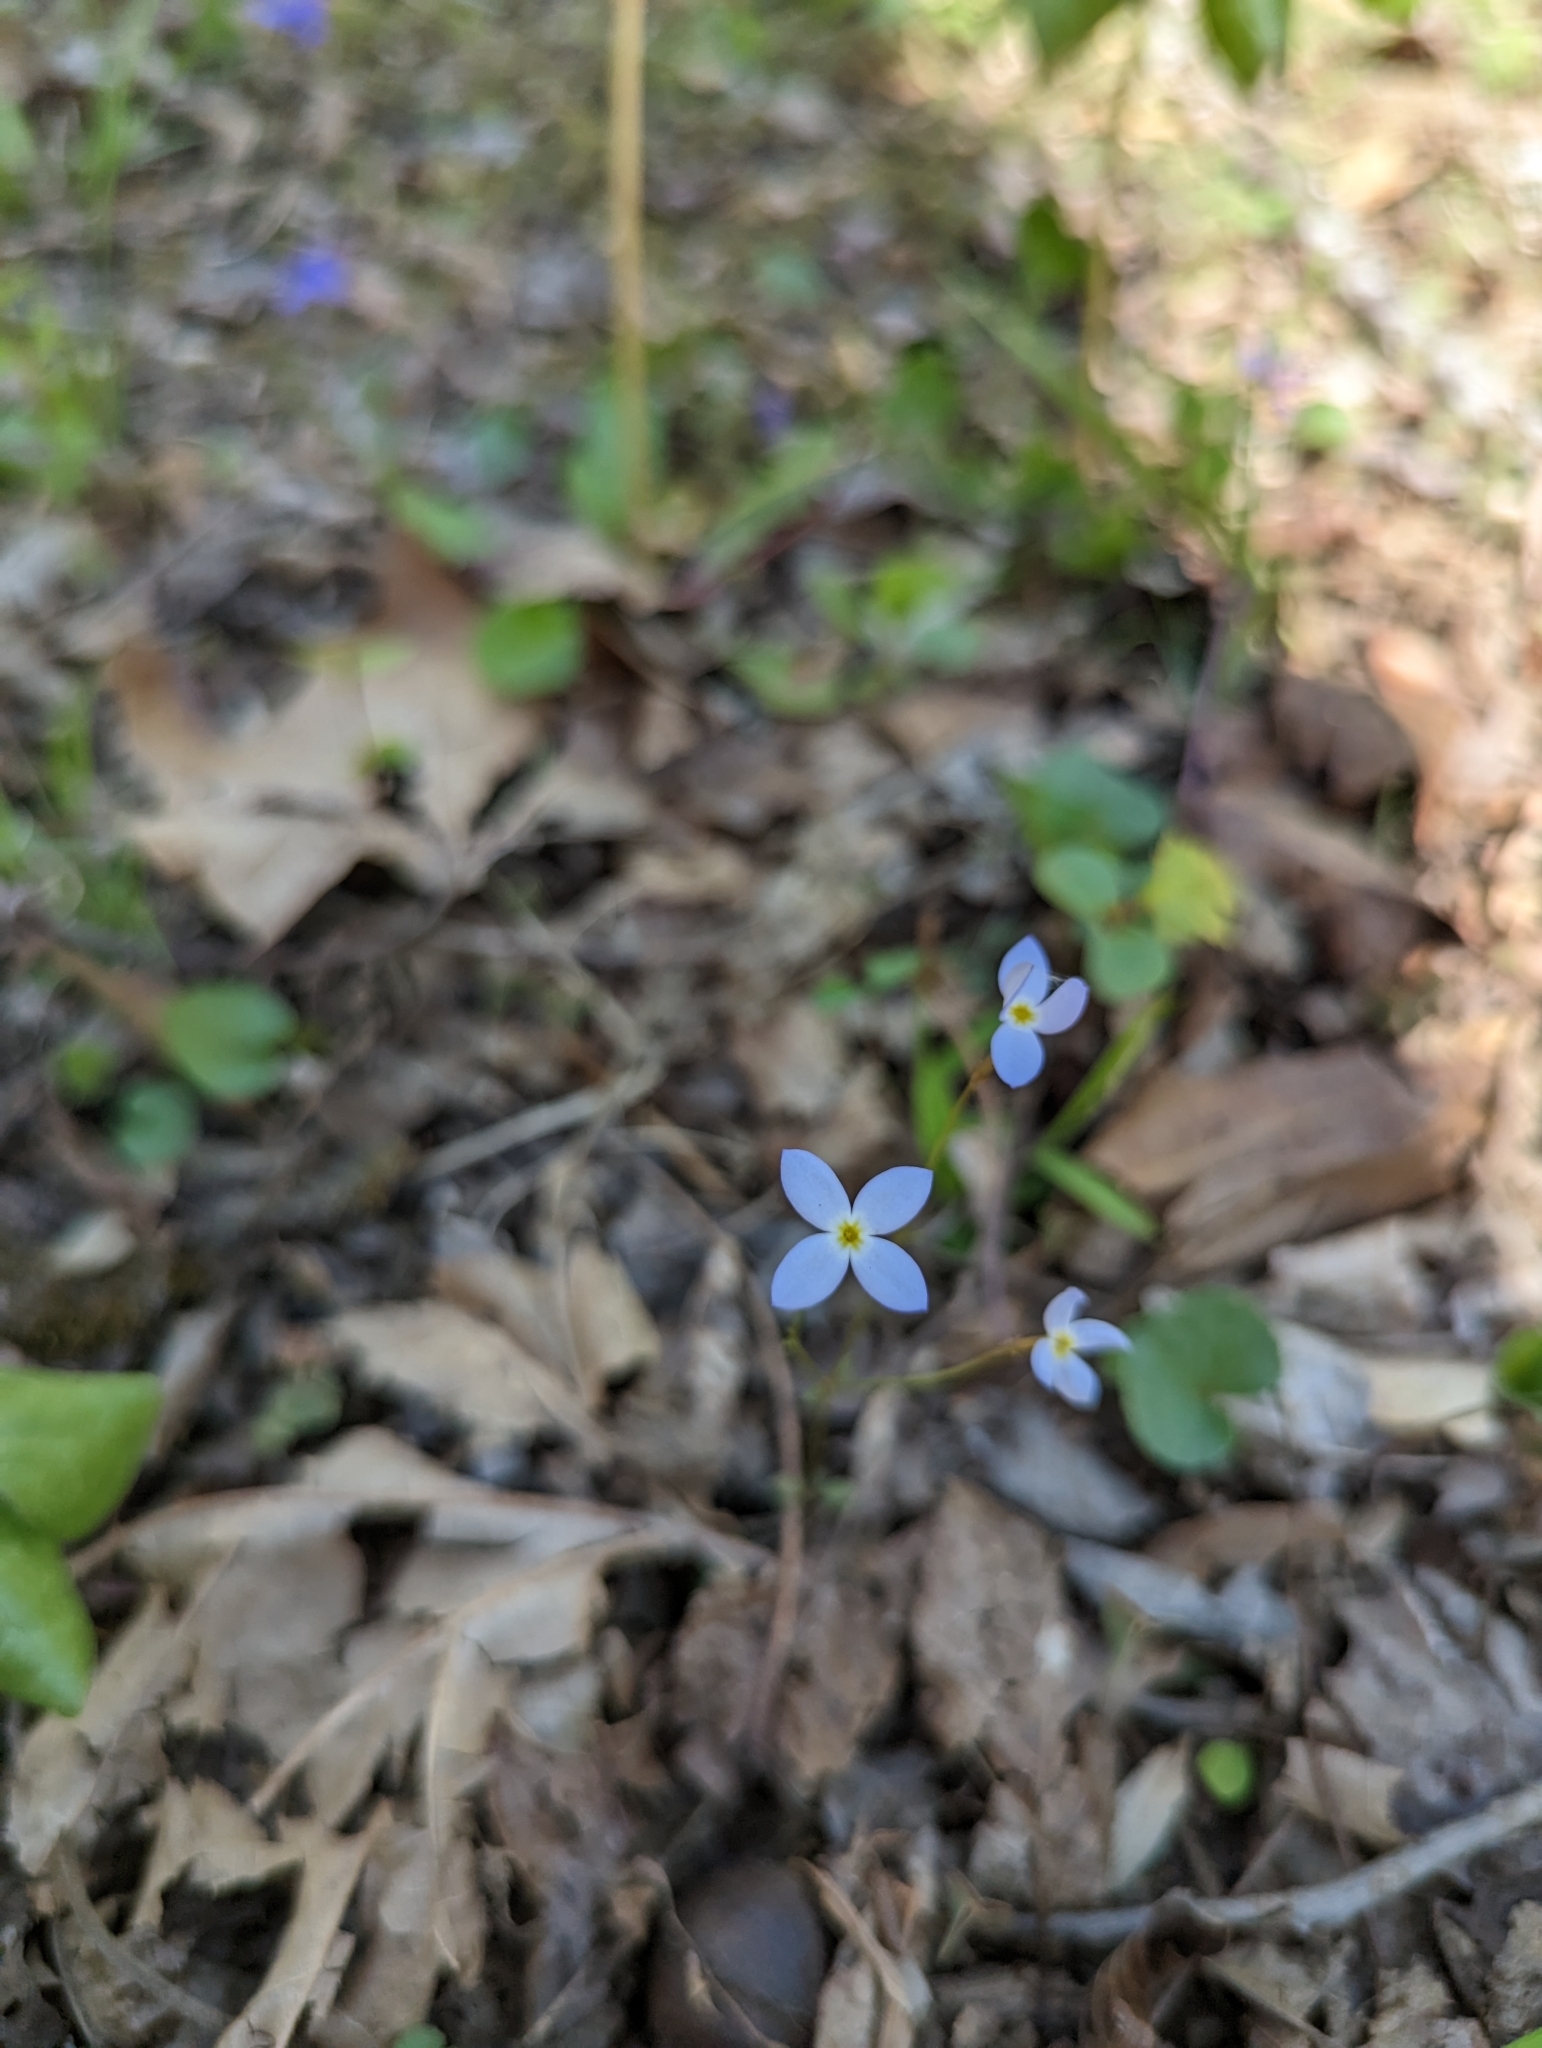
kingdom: Plantae
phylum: Tracheophyta
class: Magnoliopsida
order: Gentianales
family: Rubiaceae
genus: Houstonia
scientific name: Houstonia caerulea
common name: Bluets
